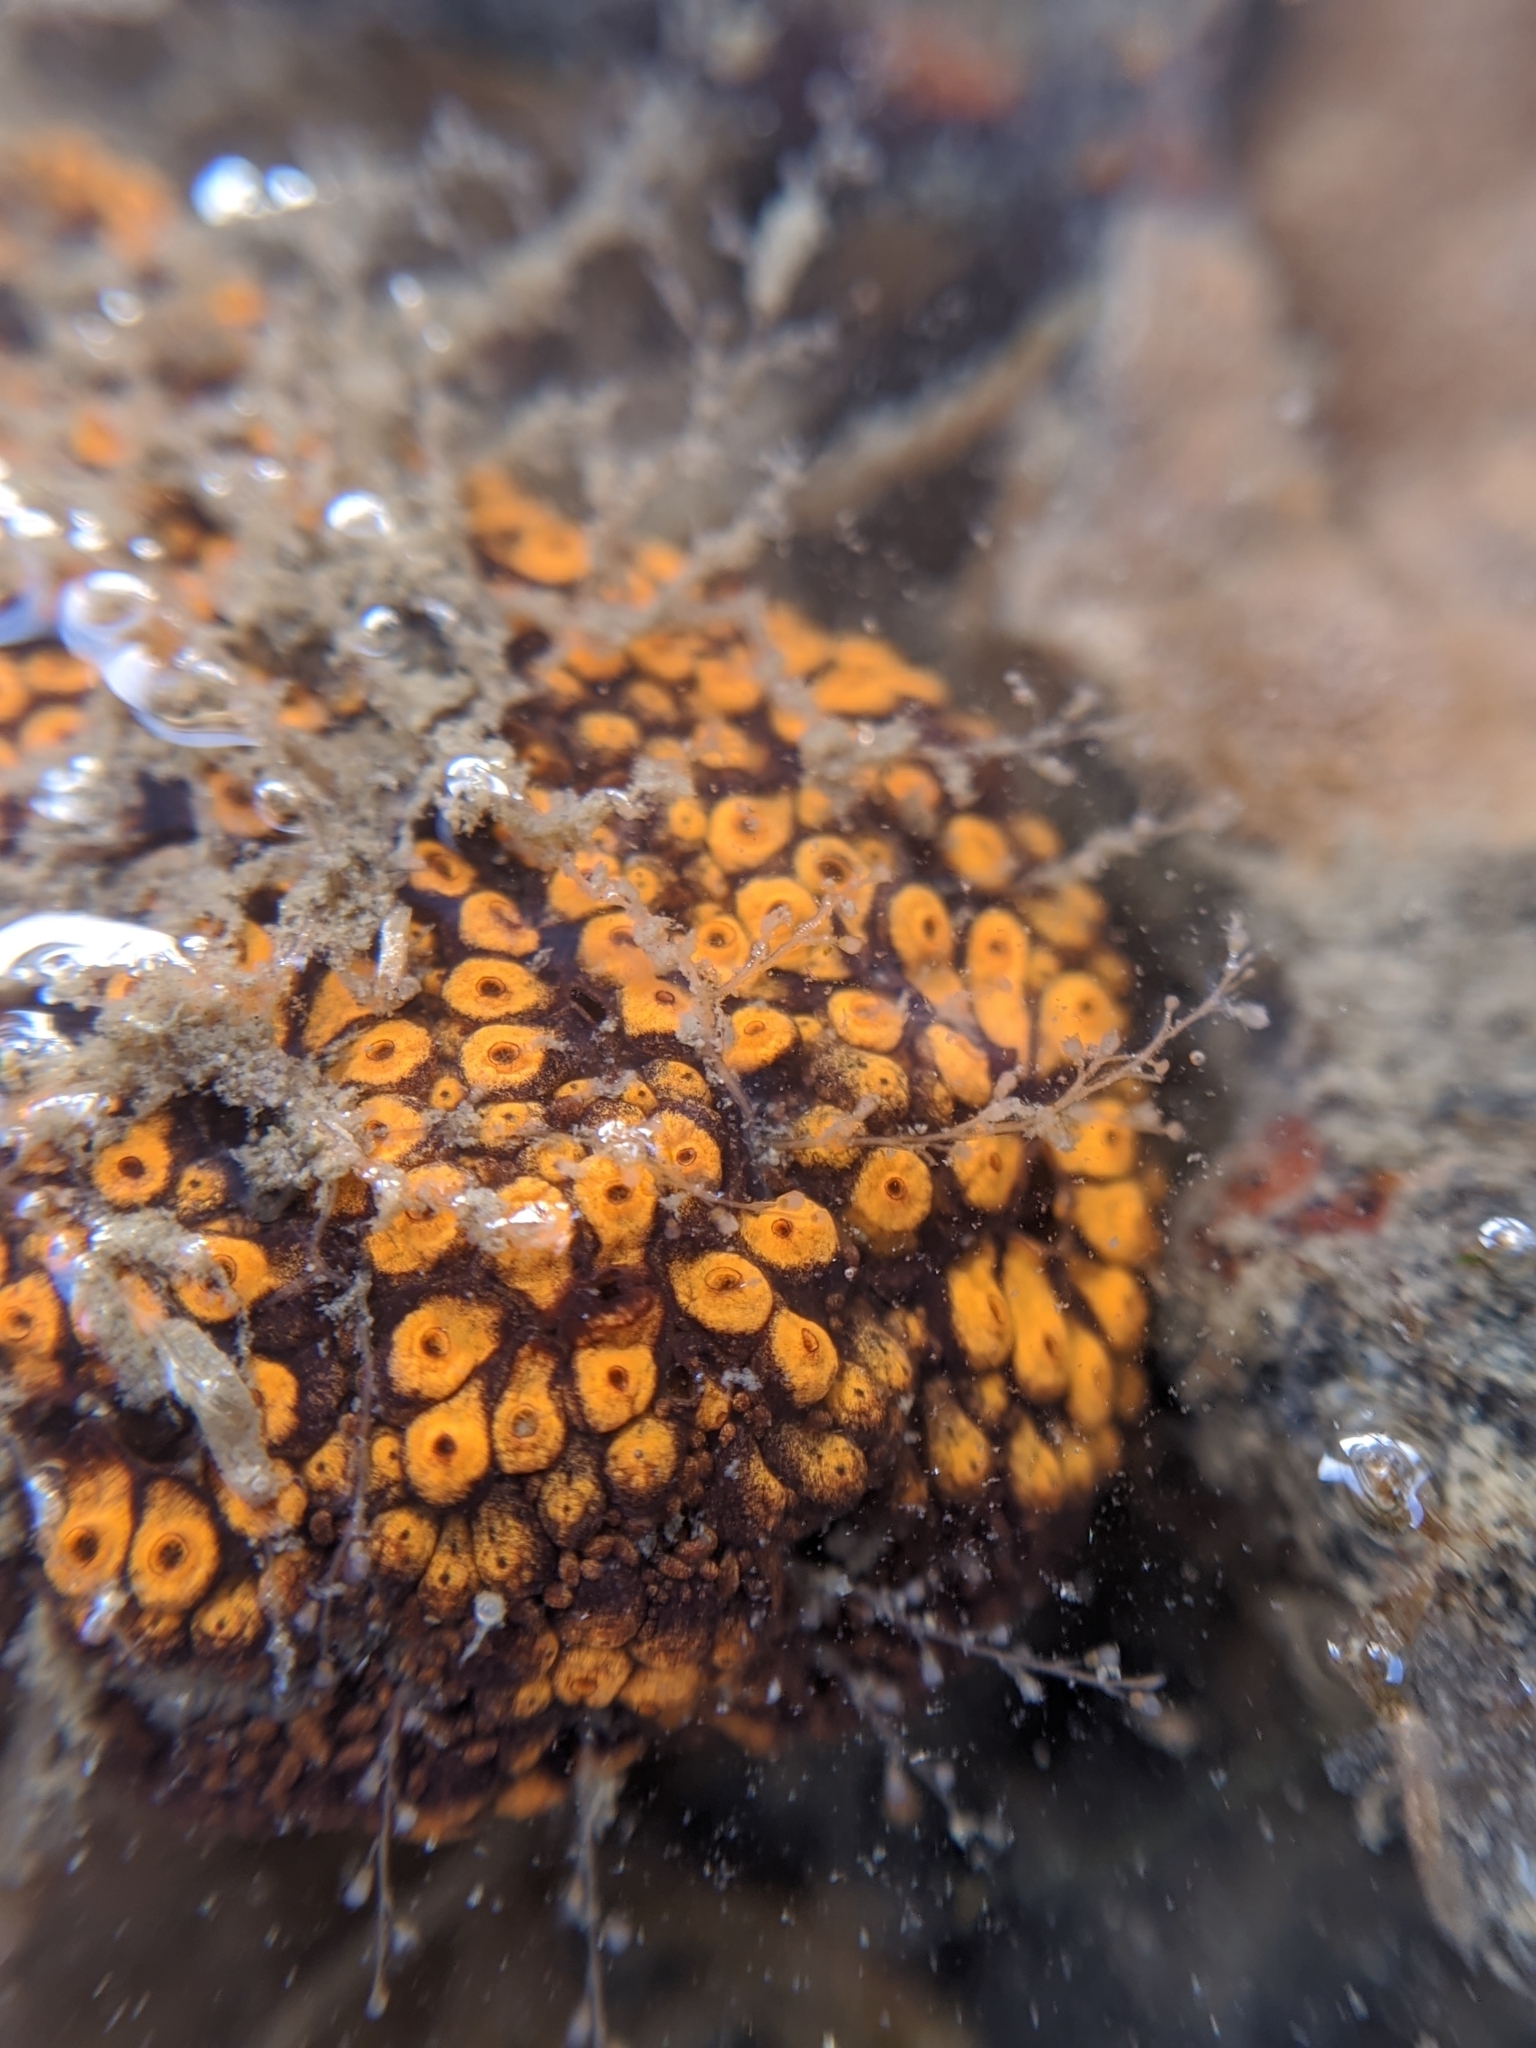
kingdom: Animalia
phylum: Chordata
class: Ascidiacea
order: Stolidobranchia
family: Styelidae
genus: Botrylloides
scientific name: Botrylloides diegensis
